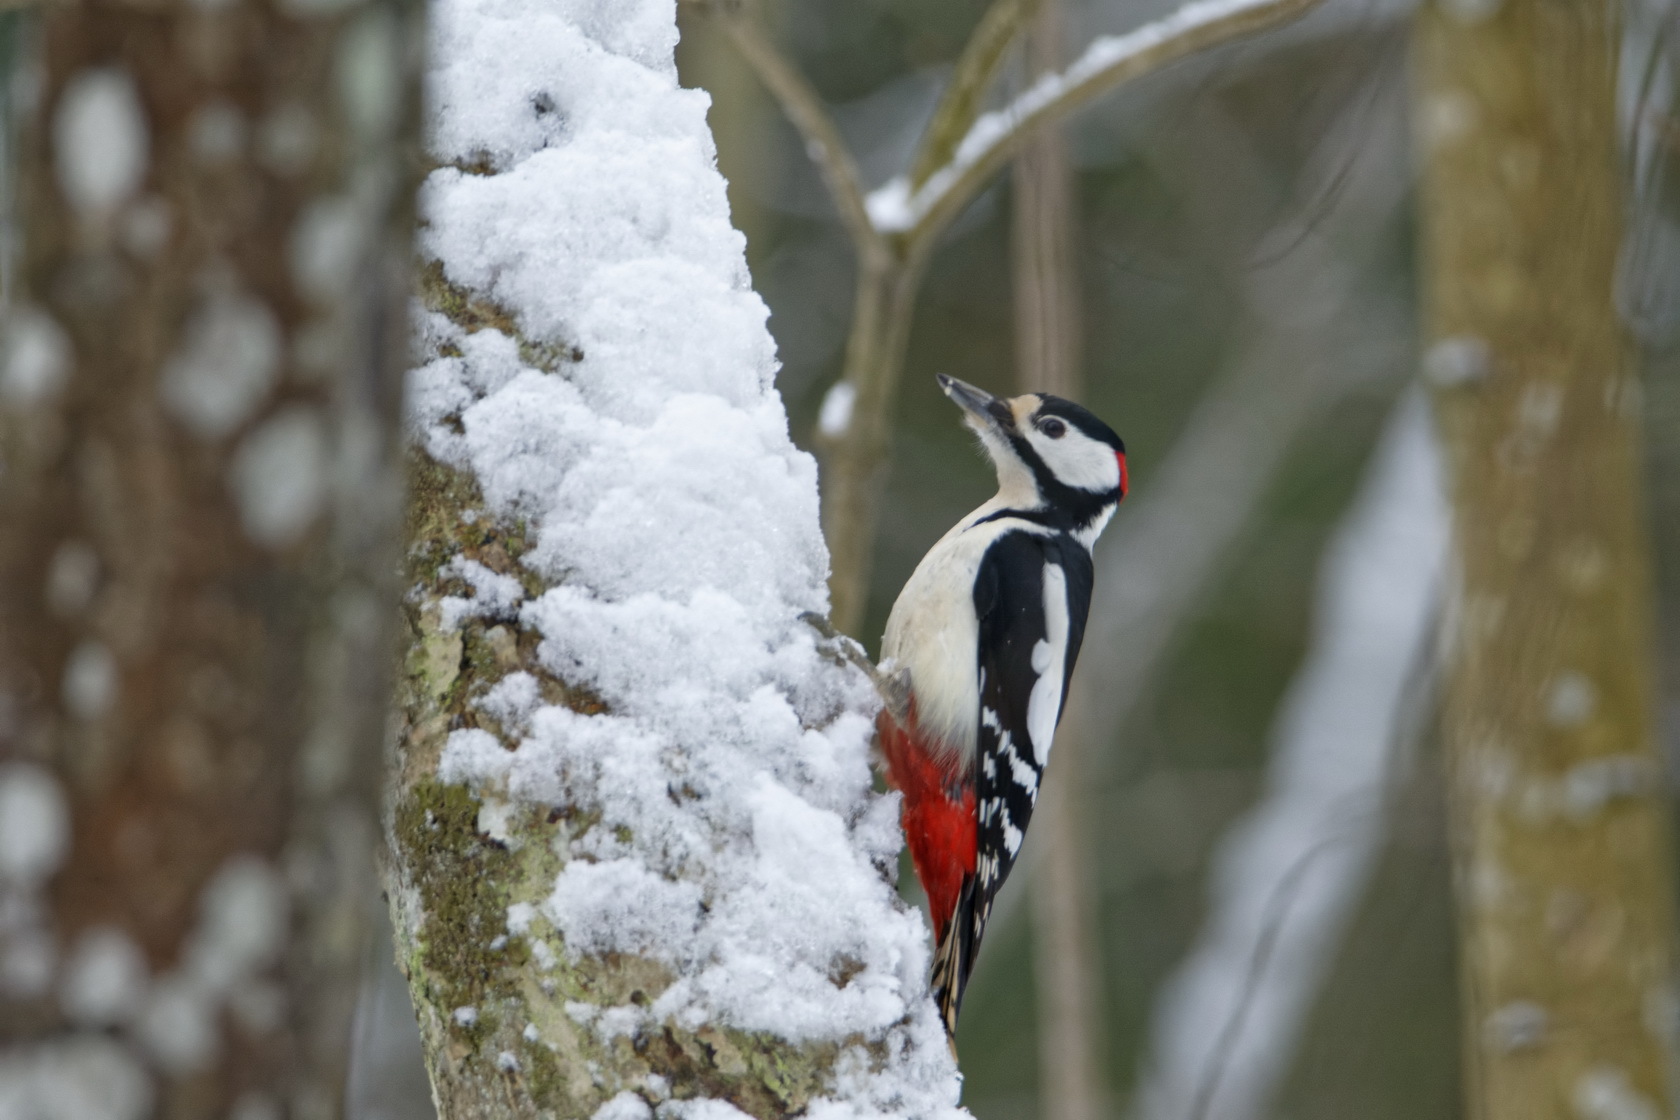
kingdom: Animalia
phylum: Chordata
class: Aves
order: Piciformes
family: Picidae
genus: Dendrocopos
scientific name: Dendrocopos major
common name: Great spotted woodpecker
